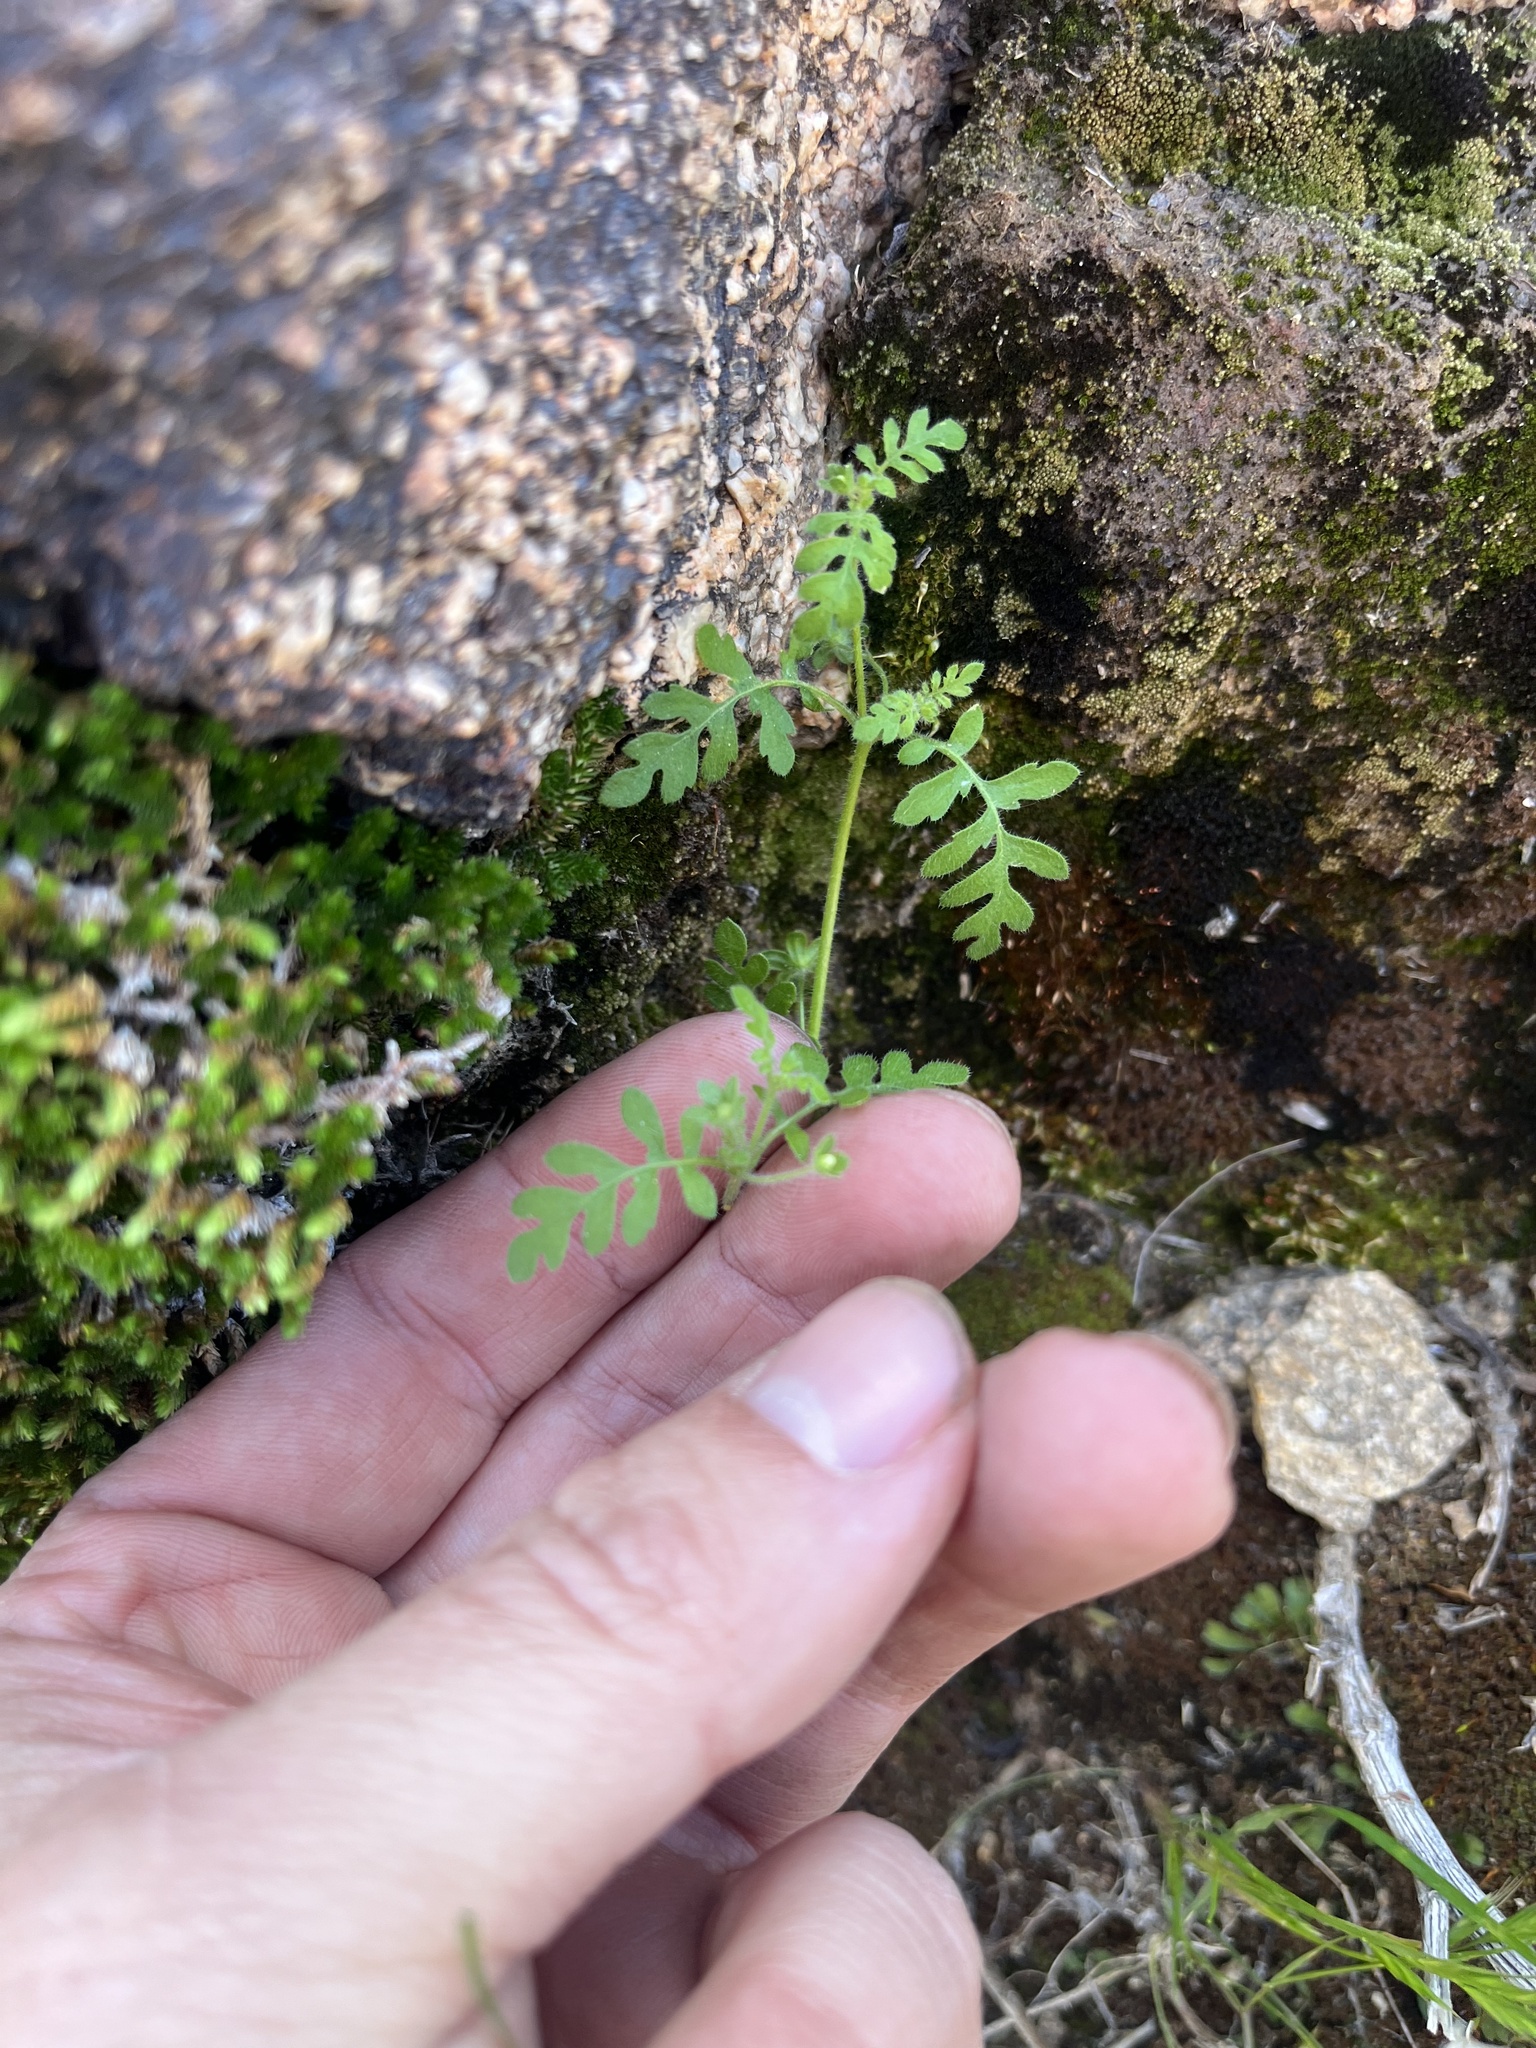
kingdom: Plantae
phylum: Tracheophyta
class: Magnoliopsida
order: Boraginales
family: Hydrophyllaceae
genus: Eucrypta
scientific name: Eucrypta chrysanthemifolia
